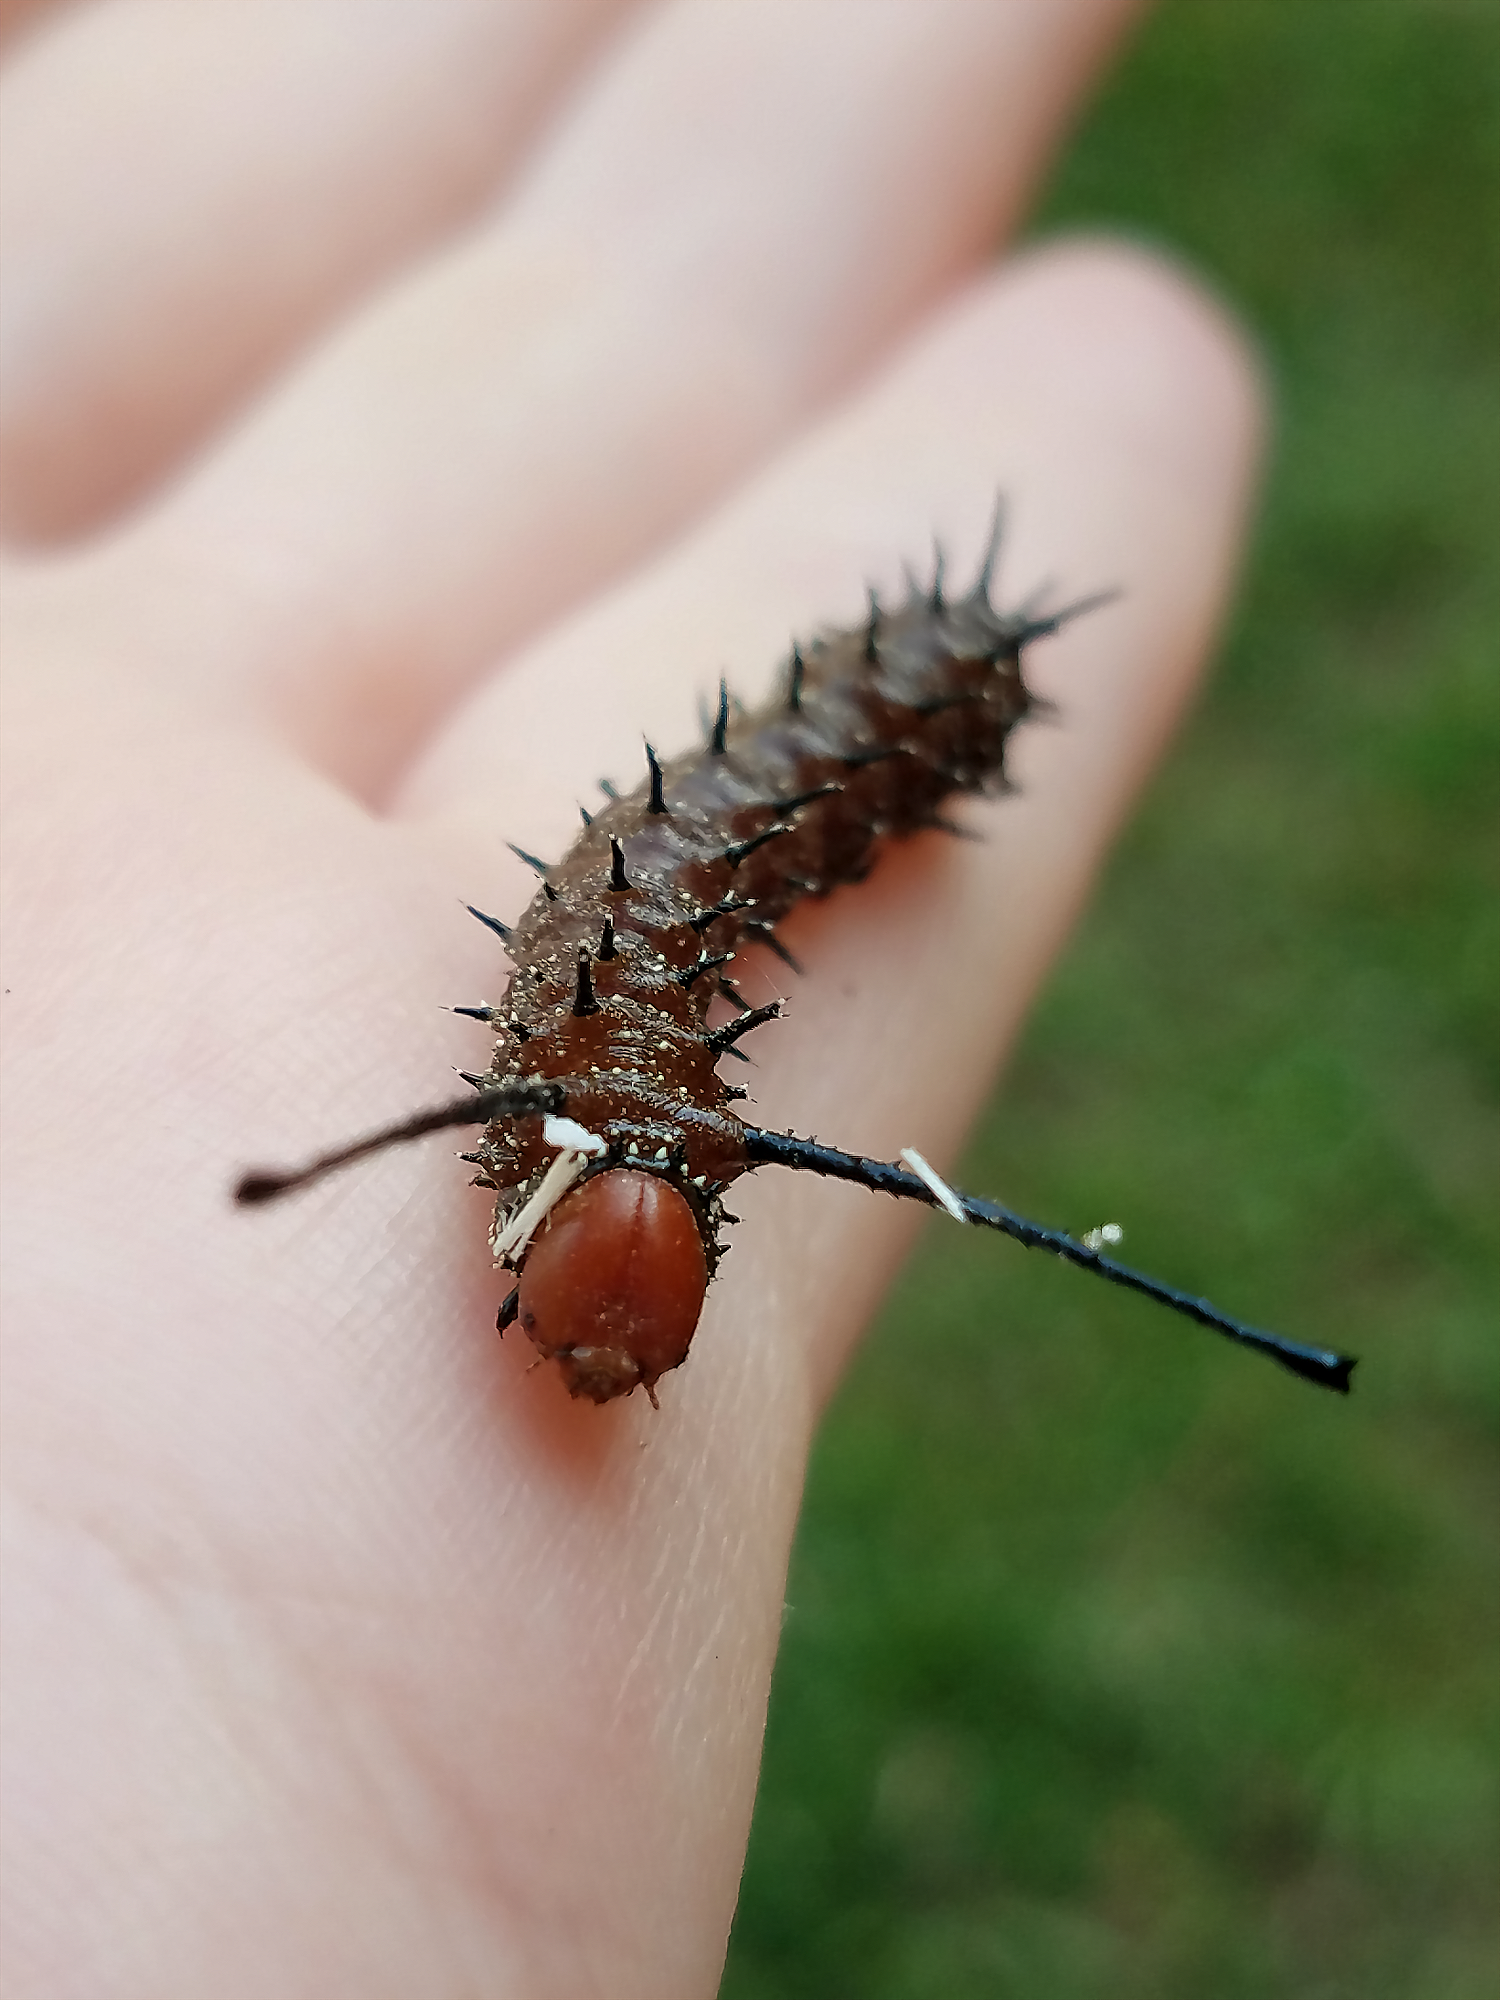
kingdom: Animalia
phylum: Arthropoda
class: Insecta
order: Lepidoptera
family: Saturniidae
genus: Anisota
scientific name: Anisota stigma
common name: Spiny oakworm moth
